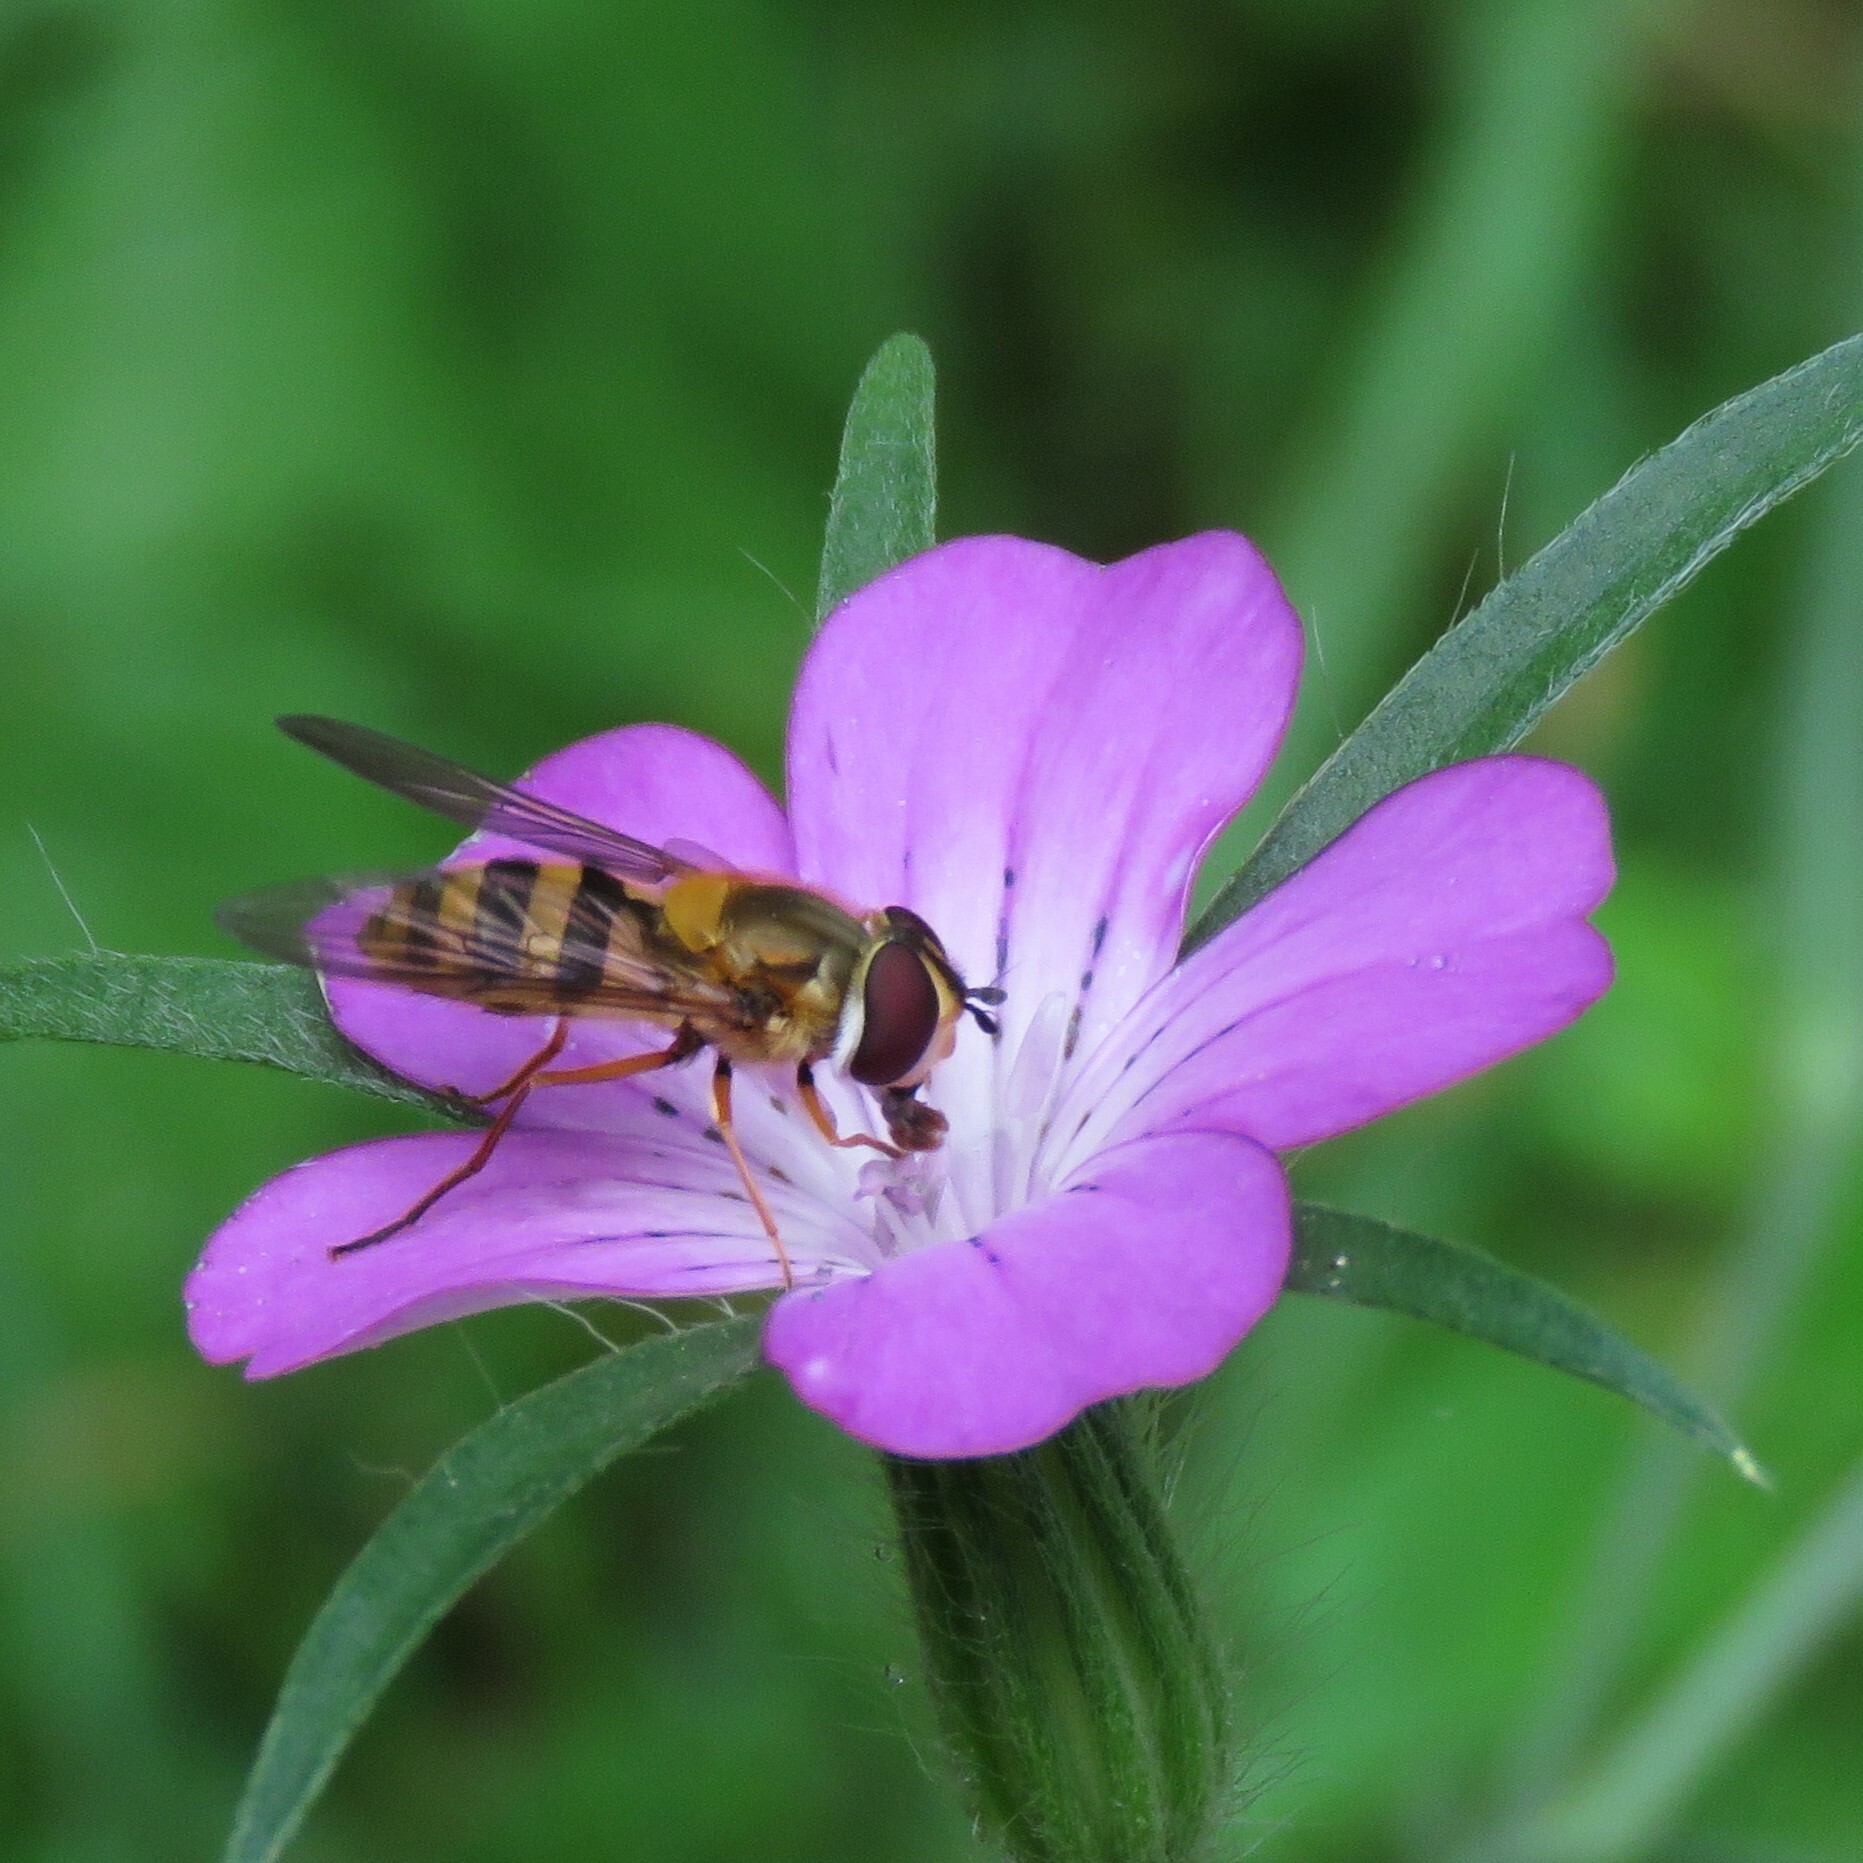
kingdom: Animalia
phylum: Arthropoda
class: Insecta
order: Diptera
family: Syrphidae
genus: Epistrophe
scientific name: Epistrophe grossulariae
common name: Black-horned smoothtail
